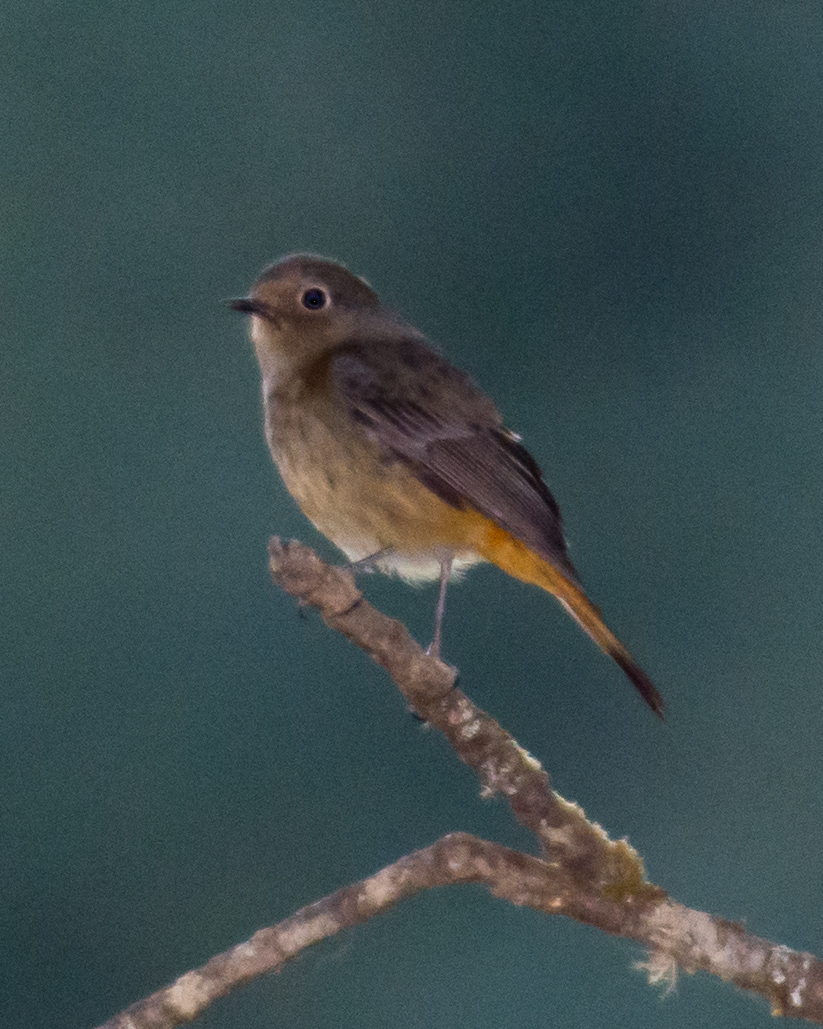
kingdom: Animalia
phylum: Chordata
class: Aves
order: Passeriformes
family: Muscicapidae
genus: Phoenicurus
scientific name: Phoenicurus frontalis
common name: Blue-fronted redstart
